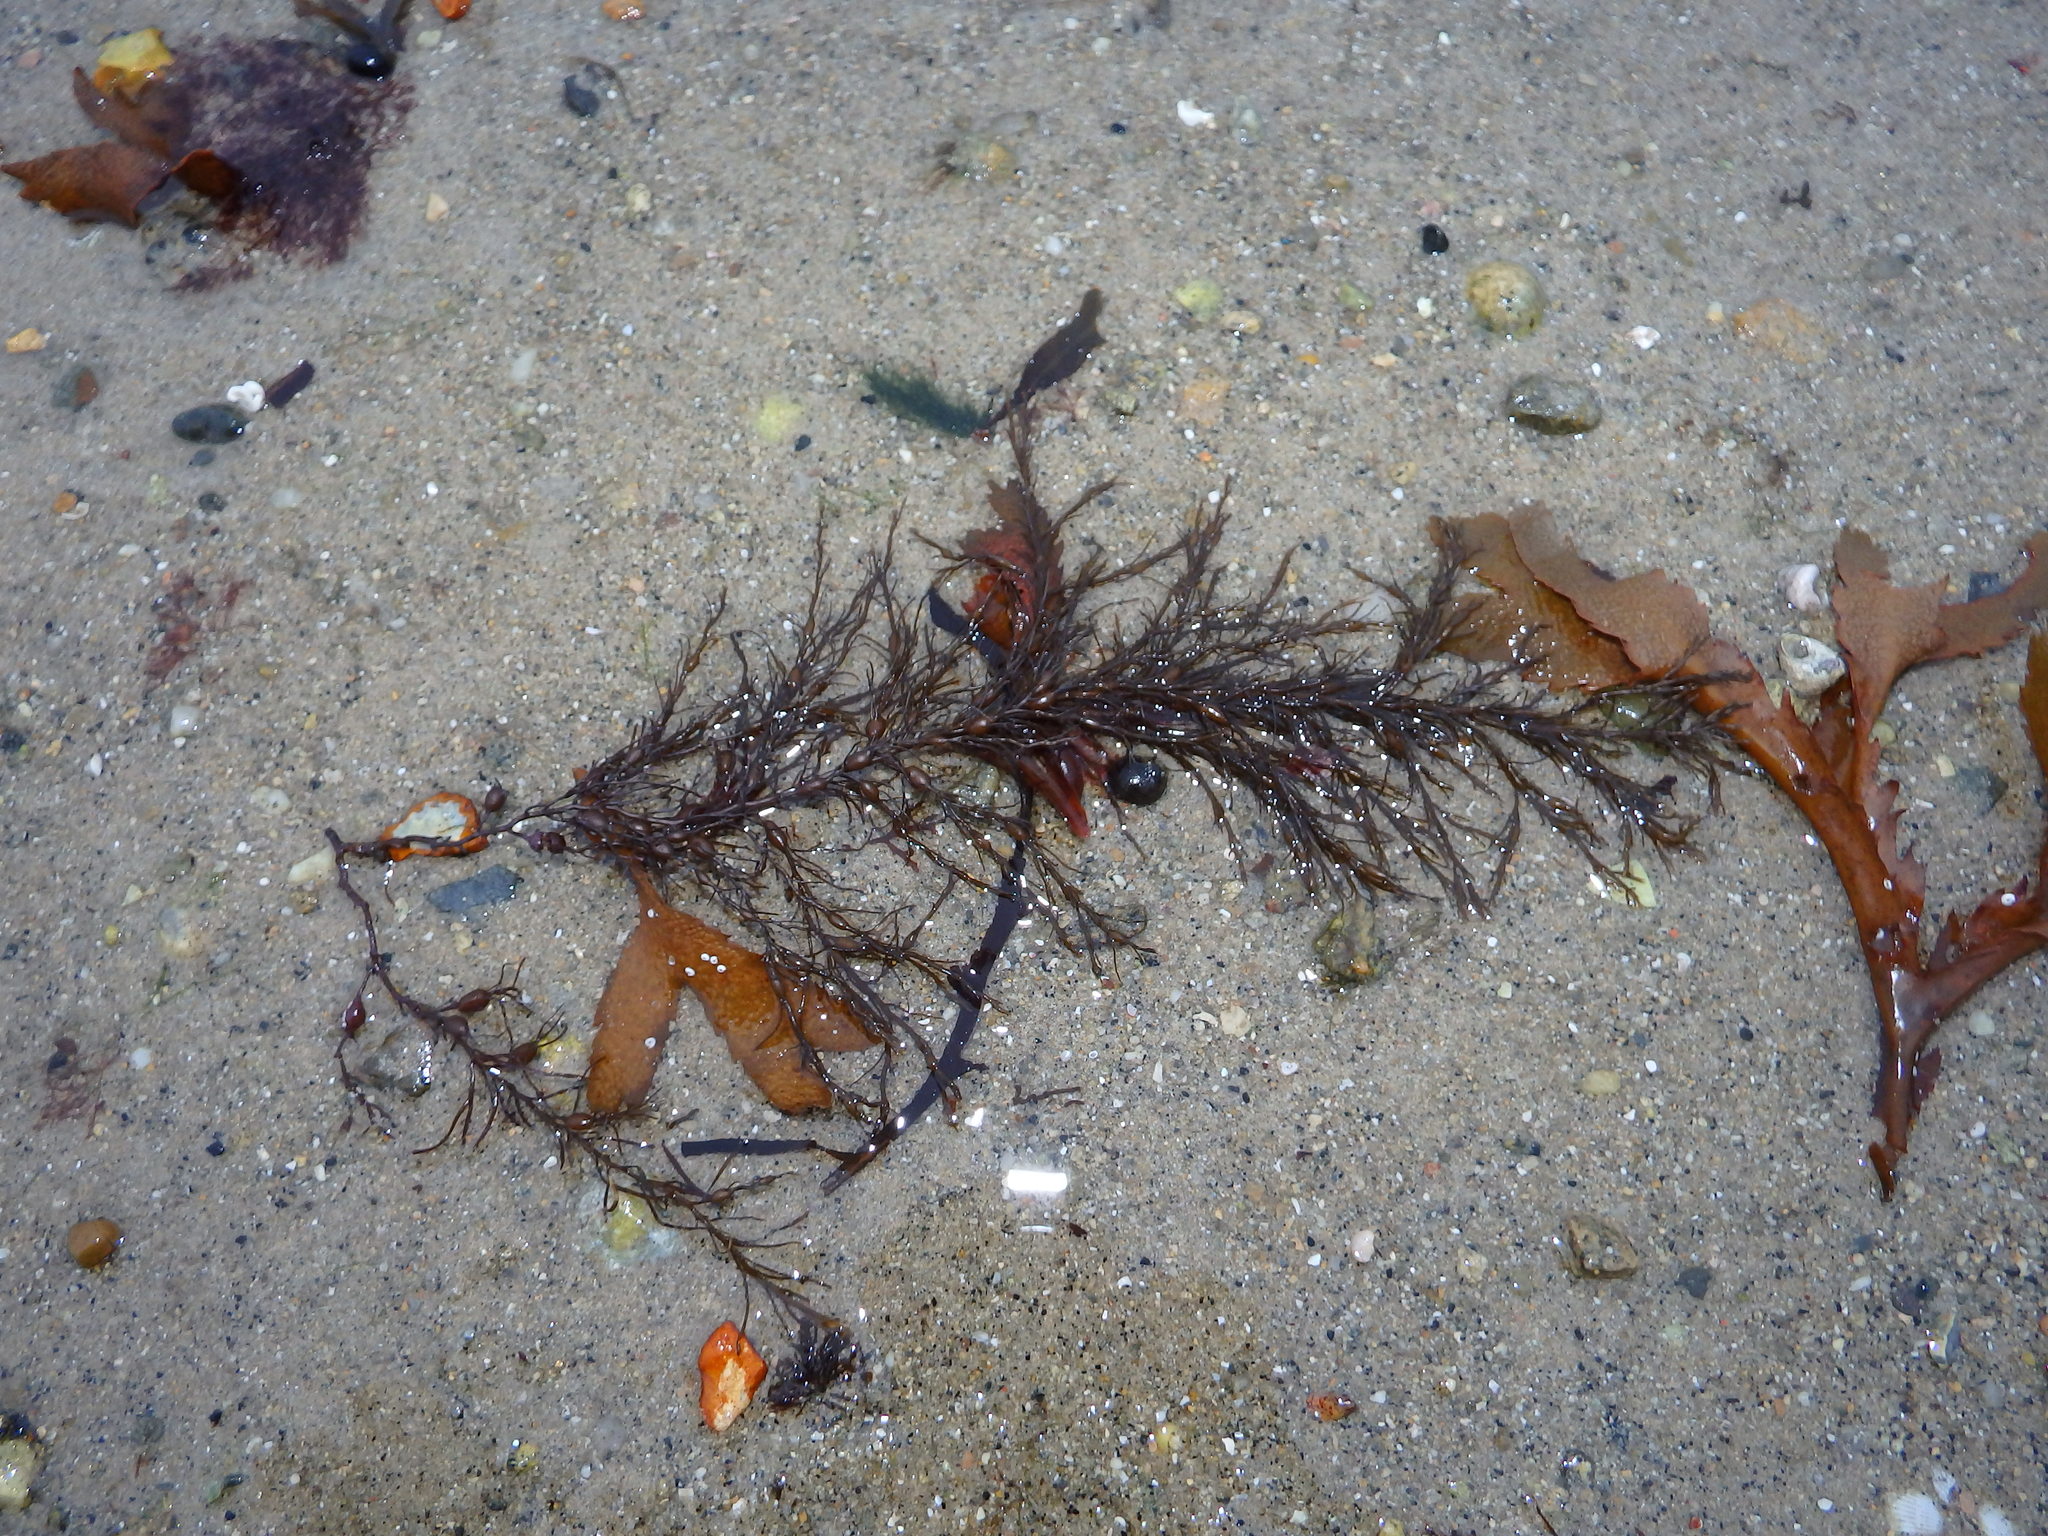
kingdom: Chromista
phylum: Ochrophyta
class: Phaeophyceae
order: Fucales
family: Sargassaceae
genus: Cystoseira
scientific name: Cystoseira Gongolaria baccata
